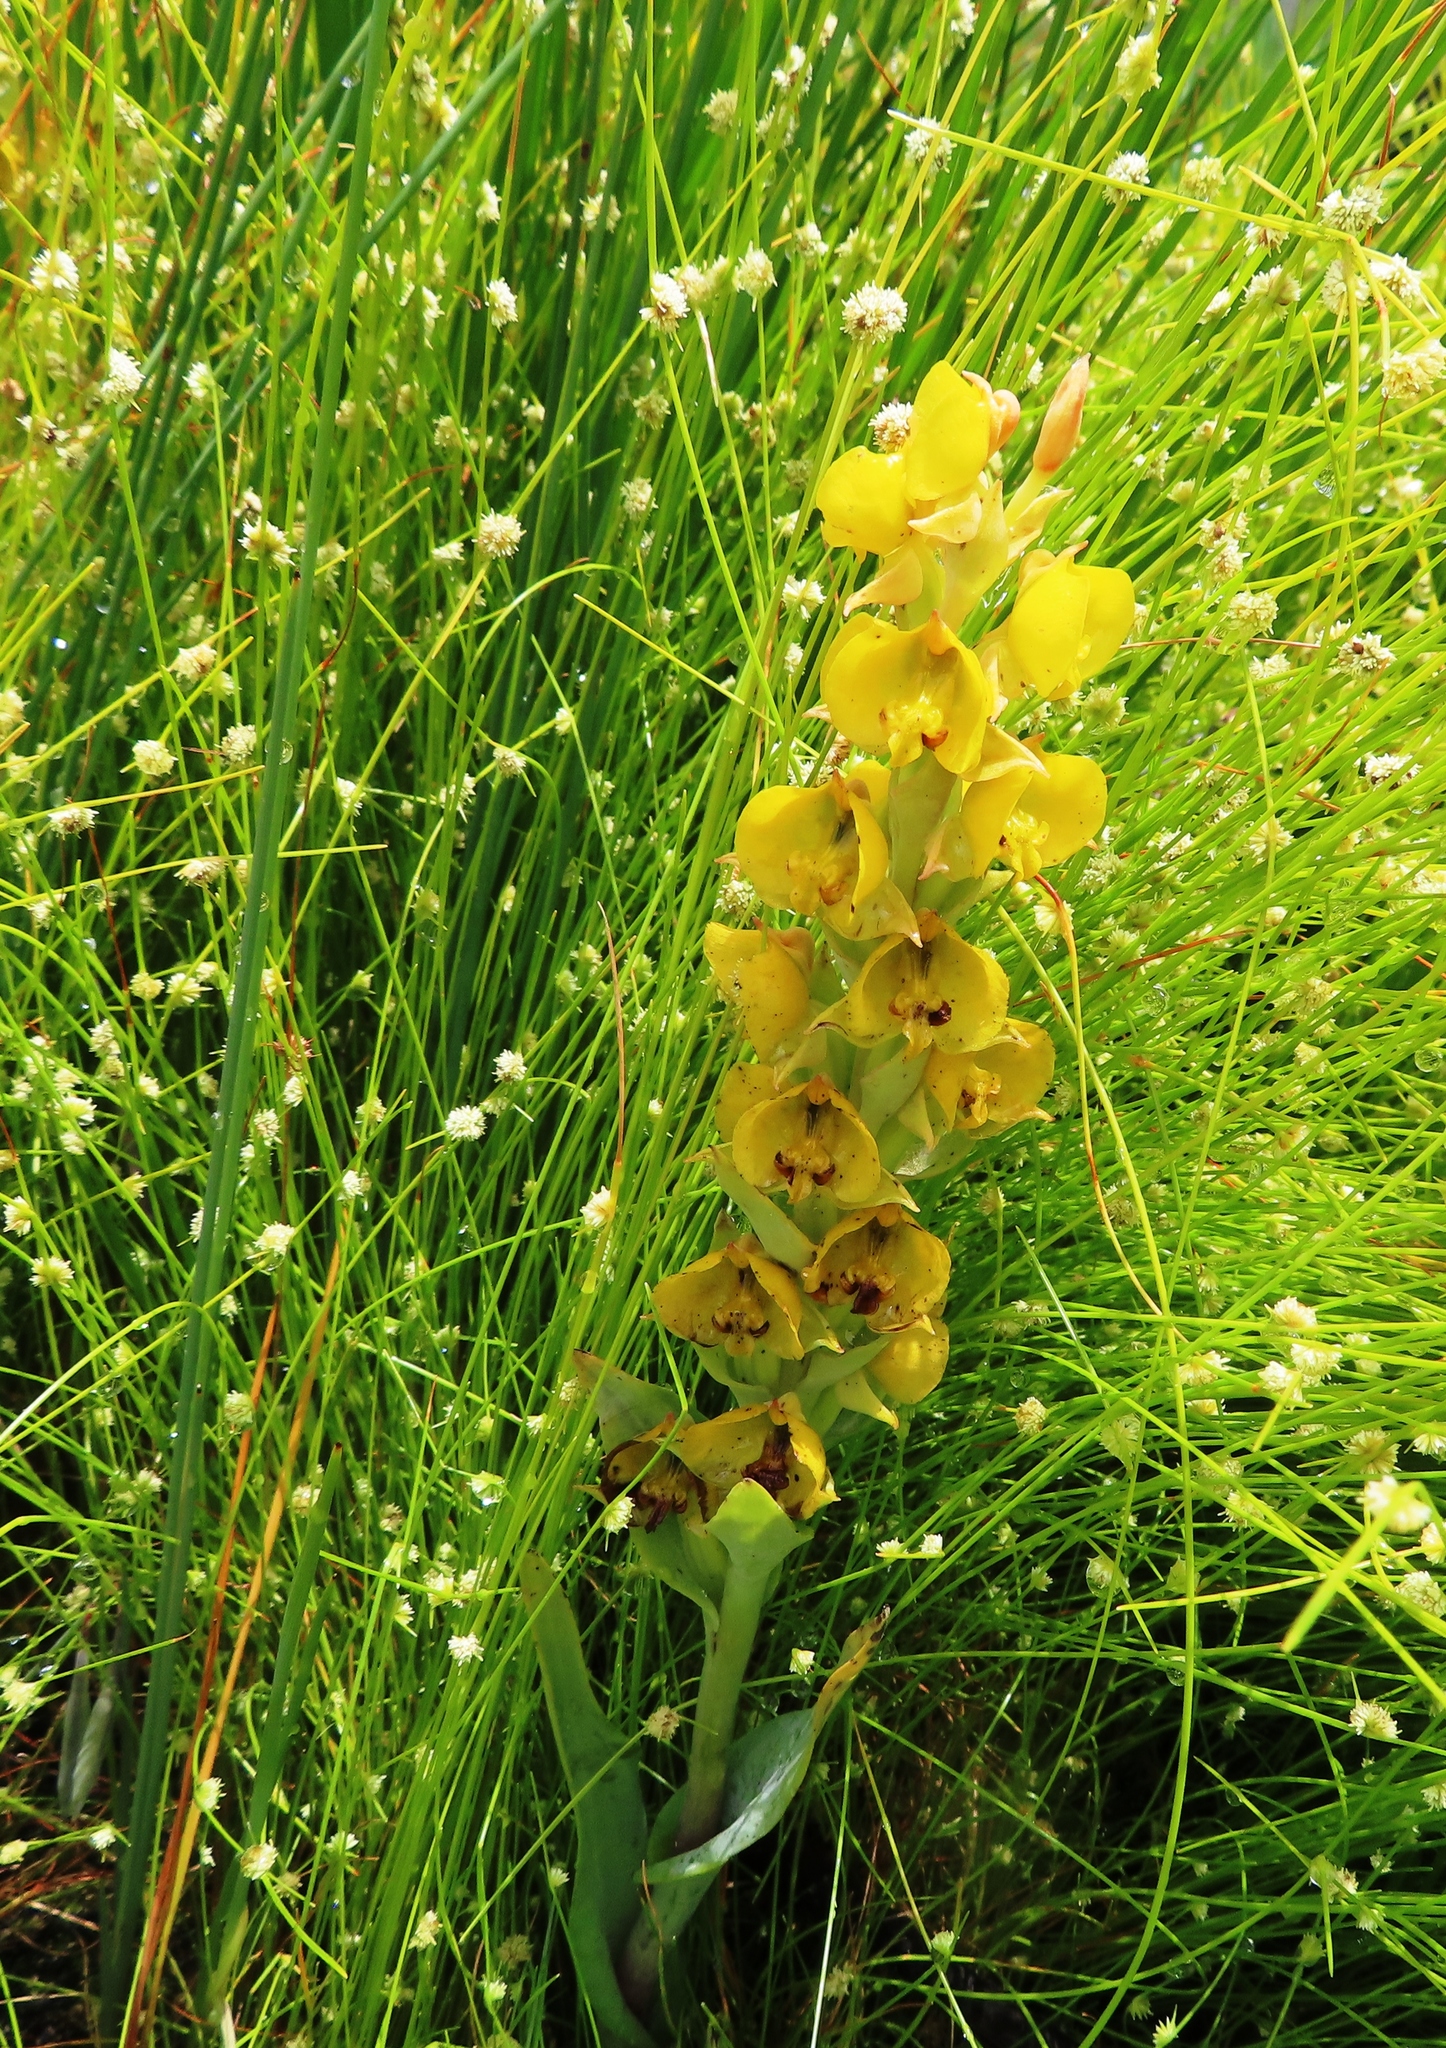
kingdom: Plantae
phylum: Tracheophyta
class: Liliopsida
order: Asparagales
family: Orchidaceae
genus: Pterygodium
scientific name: Pterygodium acutifolium
